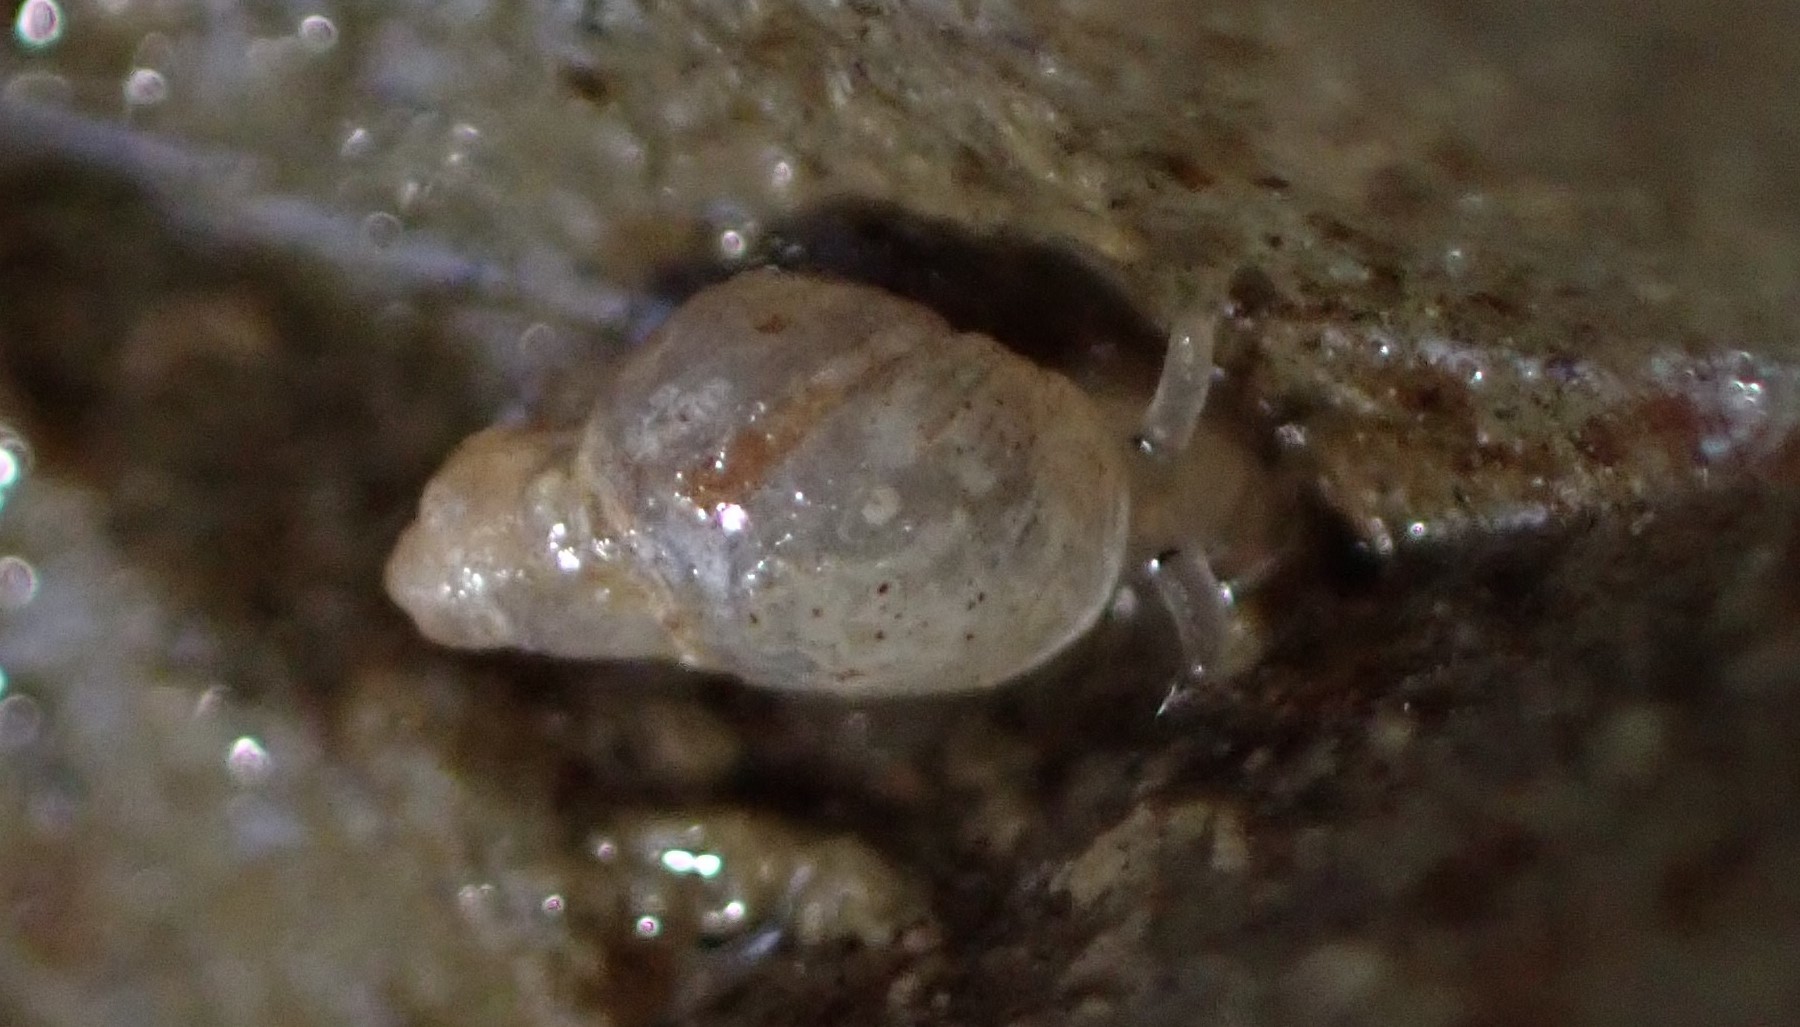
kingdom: Animalia
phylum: Mollusca
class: Gastropoda
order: Ellobiida
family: Ellobiidae
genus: Leuconopsis
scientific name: Leuconopsis obsoleta
